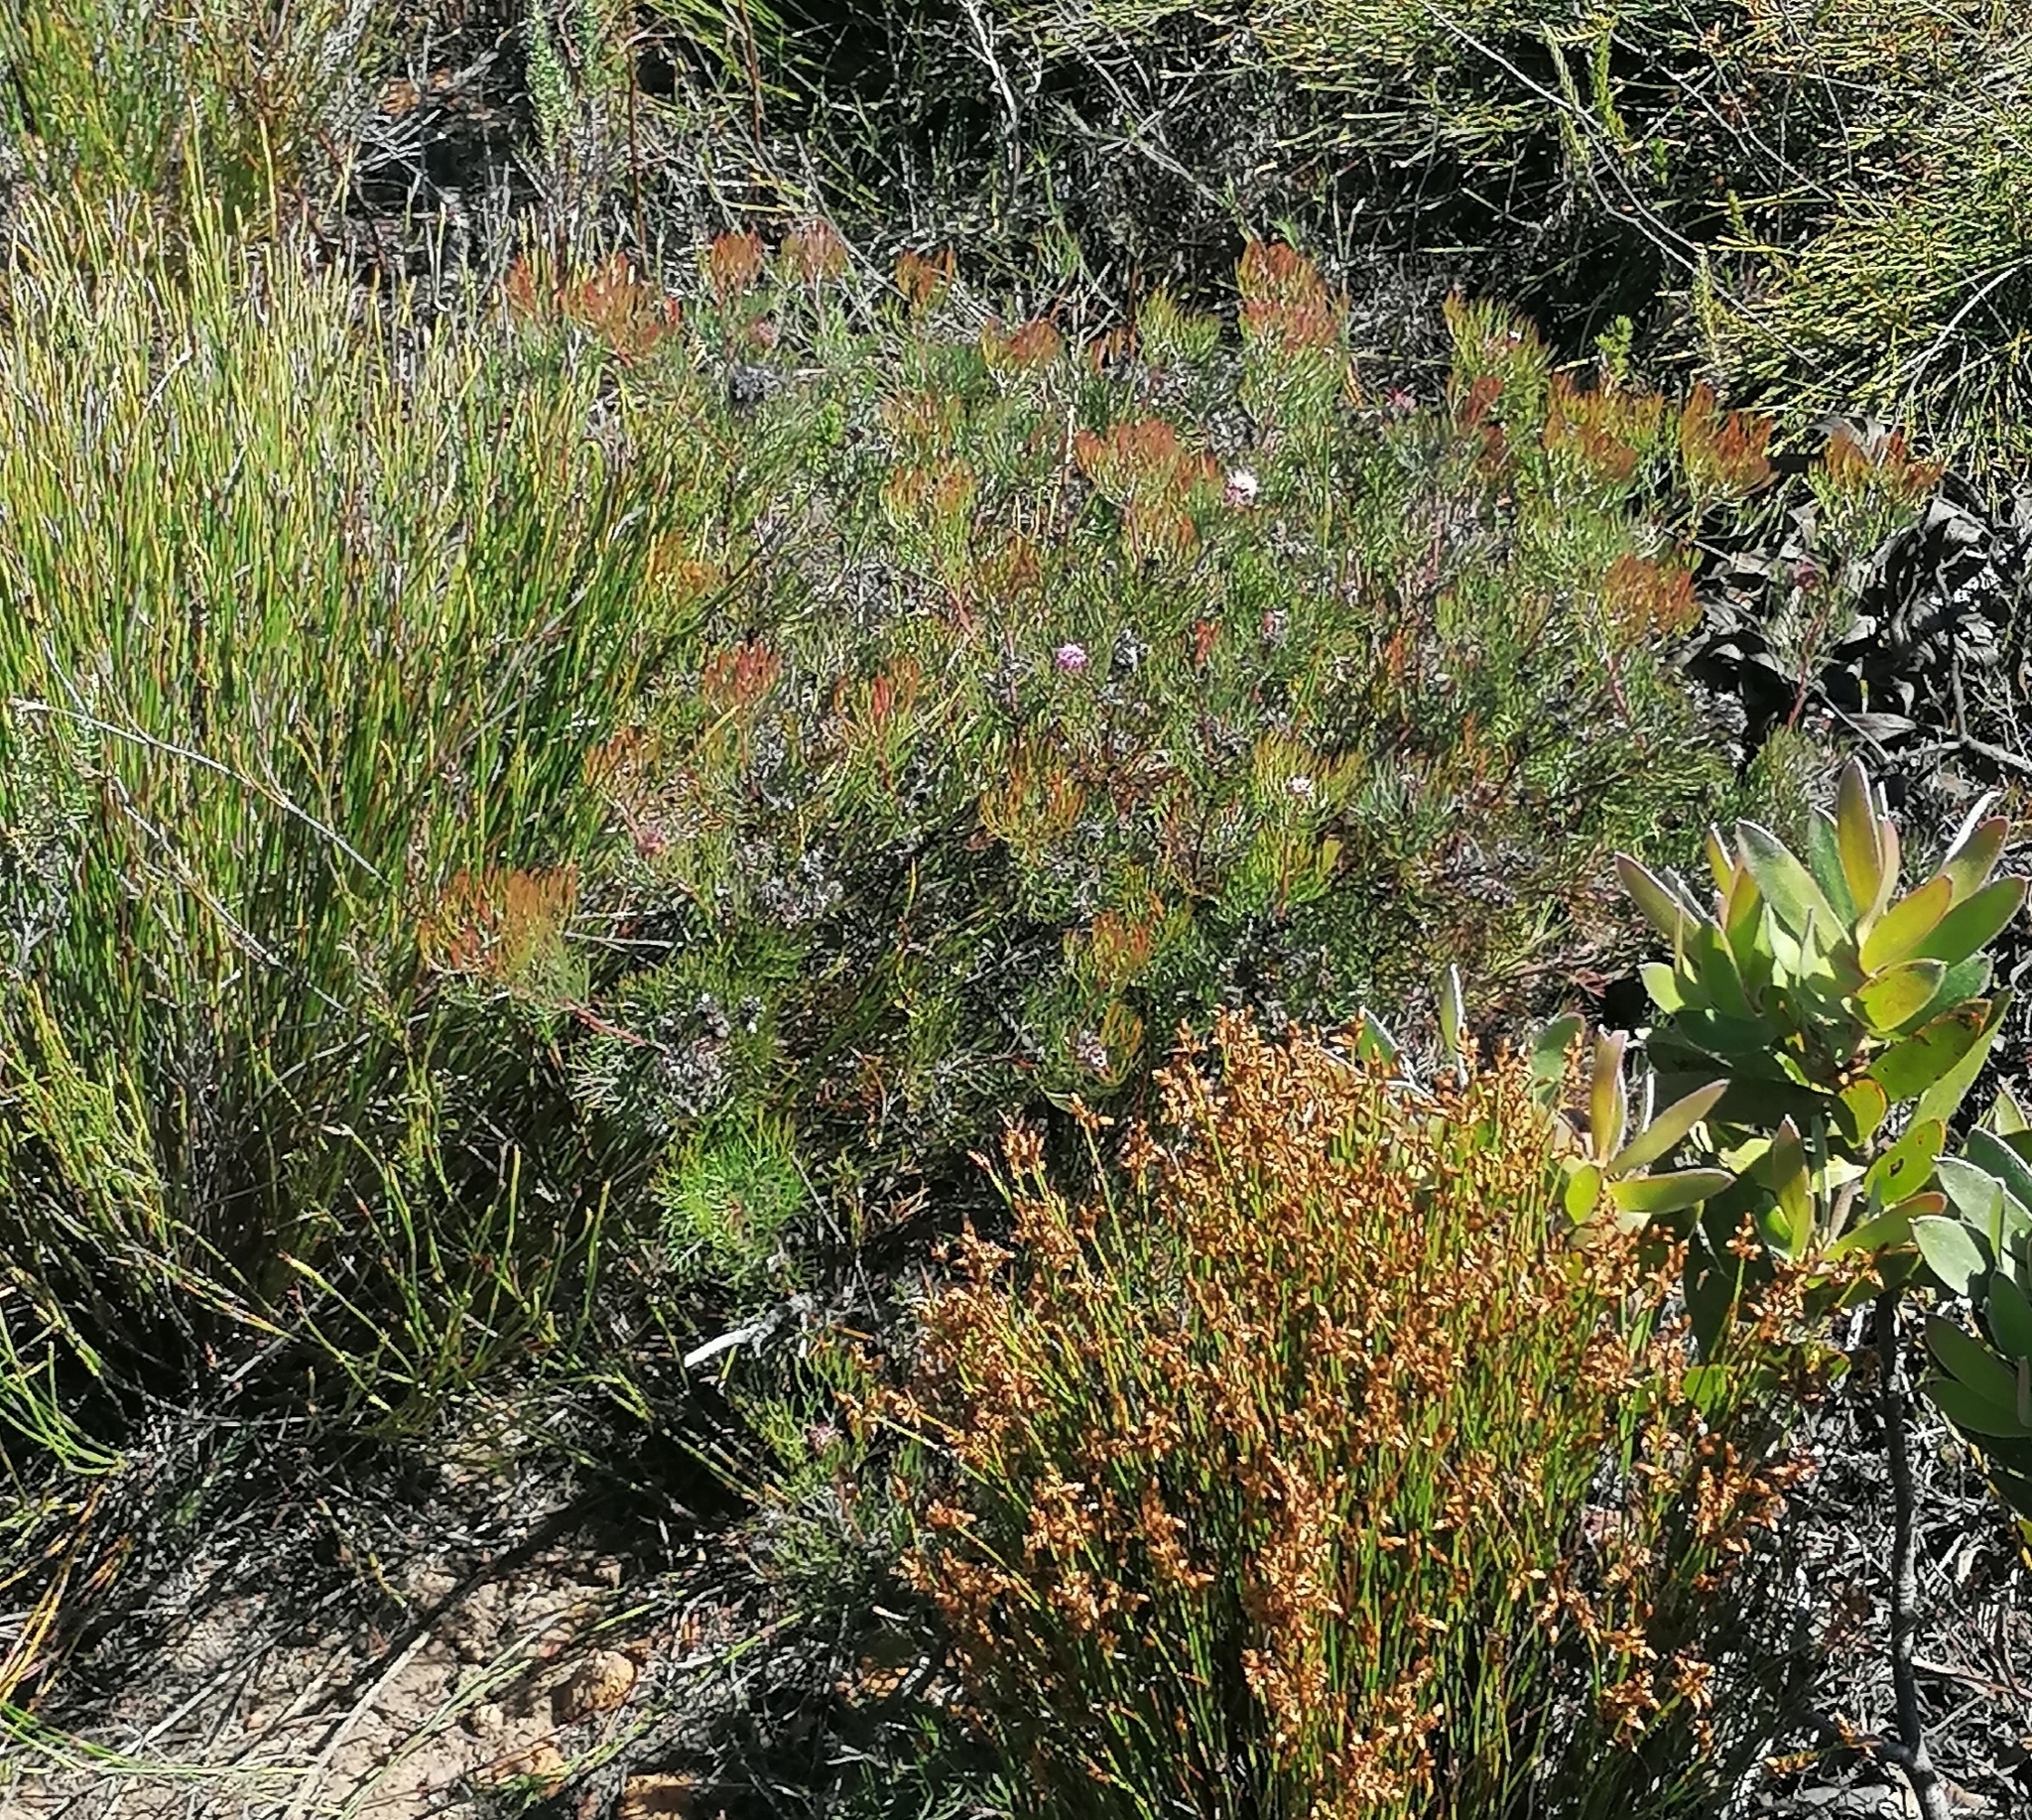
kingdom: Plantae
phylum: Tracheophyta
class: Magnoliopsida
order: Proteales
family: Proteaceae
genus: Serruria
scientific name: Serruria fasciflora
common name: Common pin spiderhead
